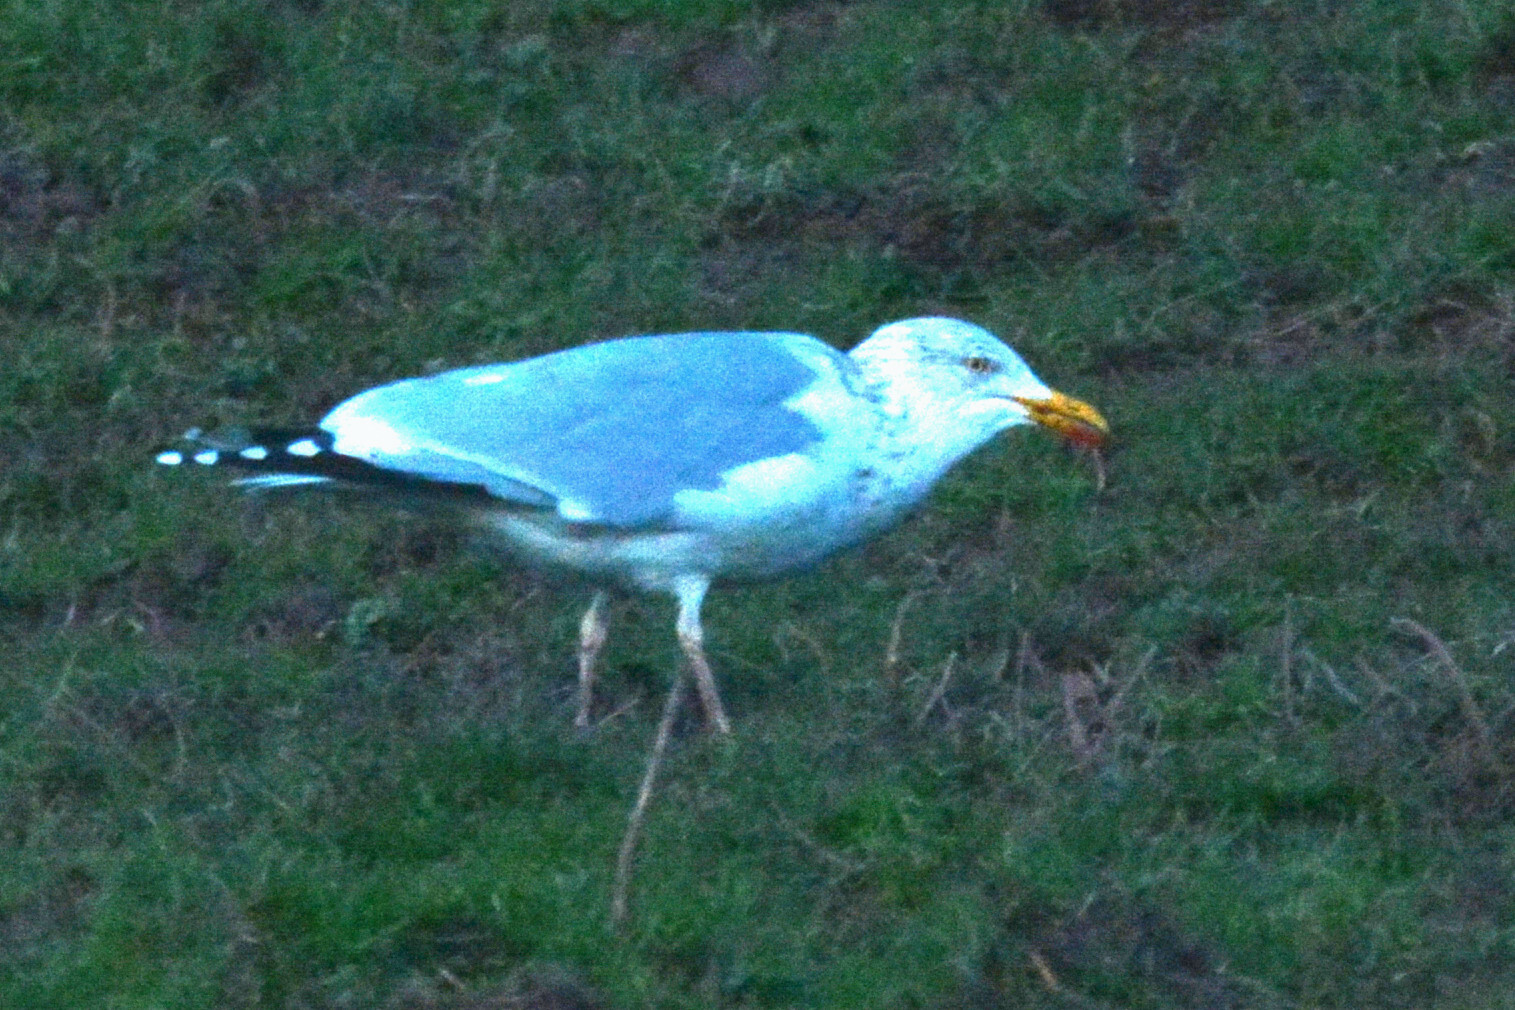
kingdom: Animalia
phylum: Chordata
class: Aves
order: Charadriiformes
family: Laridae
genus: Larus
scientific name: Larus argentatus
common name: Herring gull
